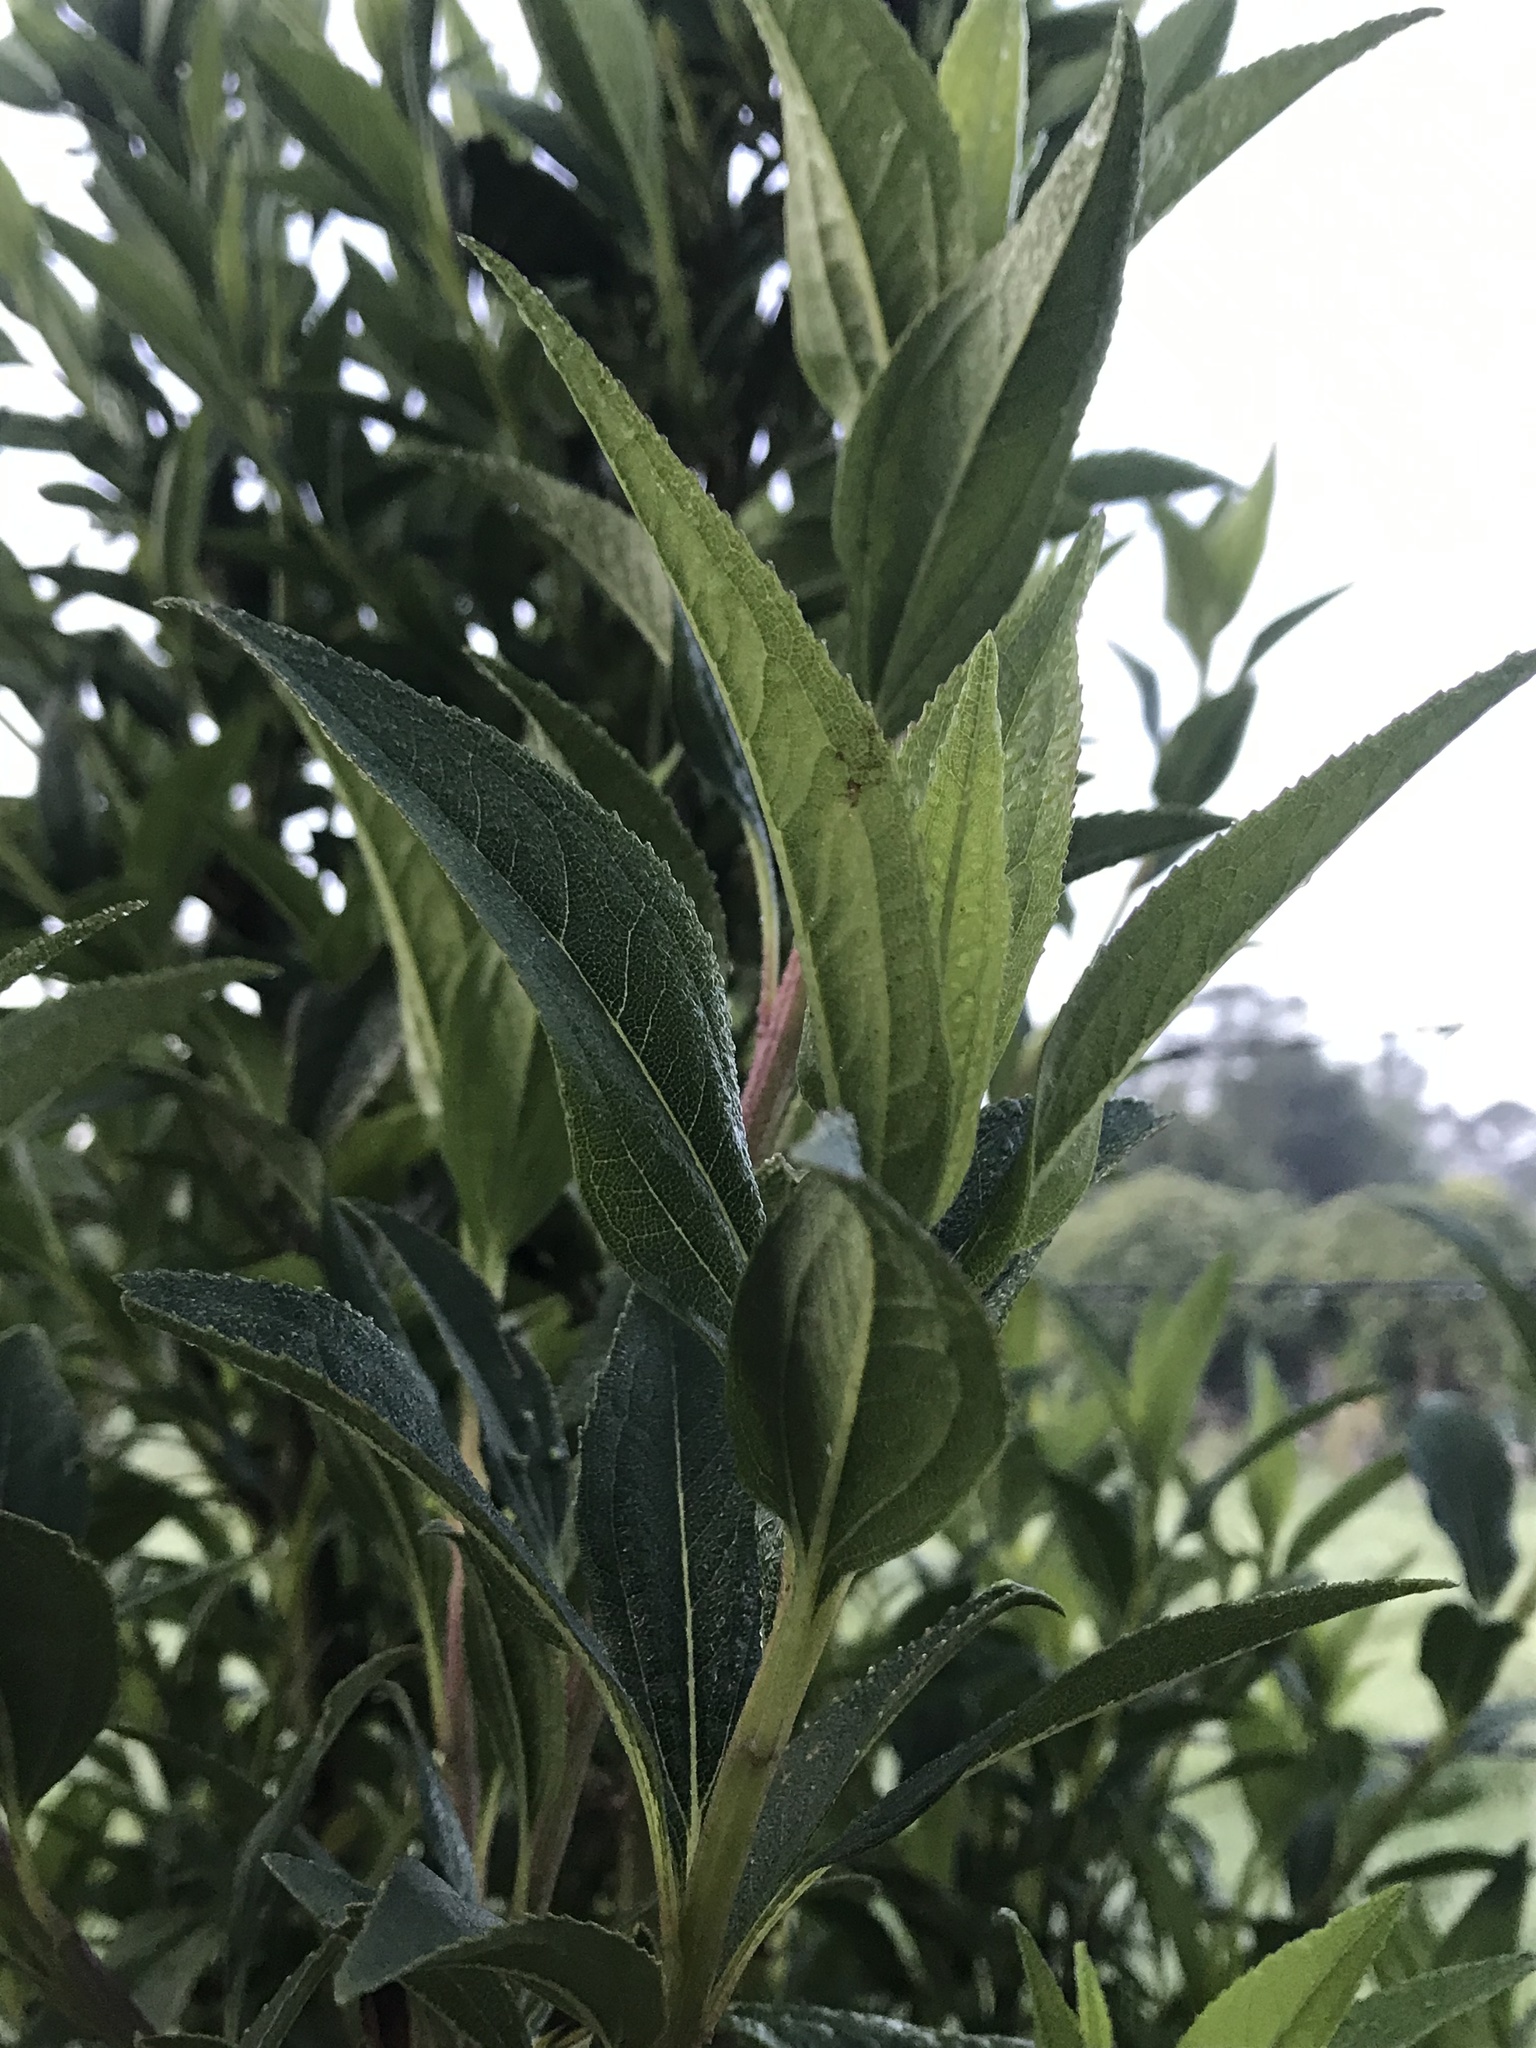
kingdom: Plantae
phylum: Tracheophyta
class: Magnoliopsida
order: Asterales
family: Asteraceae
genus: Baccharis
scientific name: Baccharis latifolia
